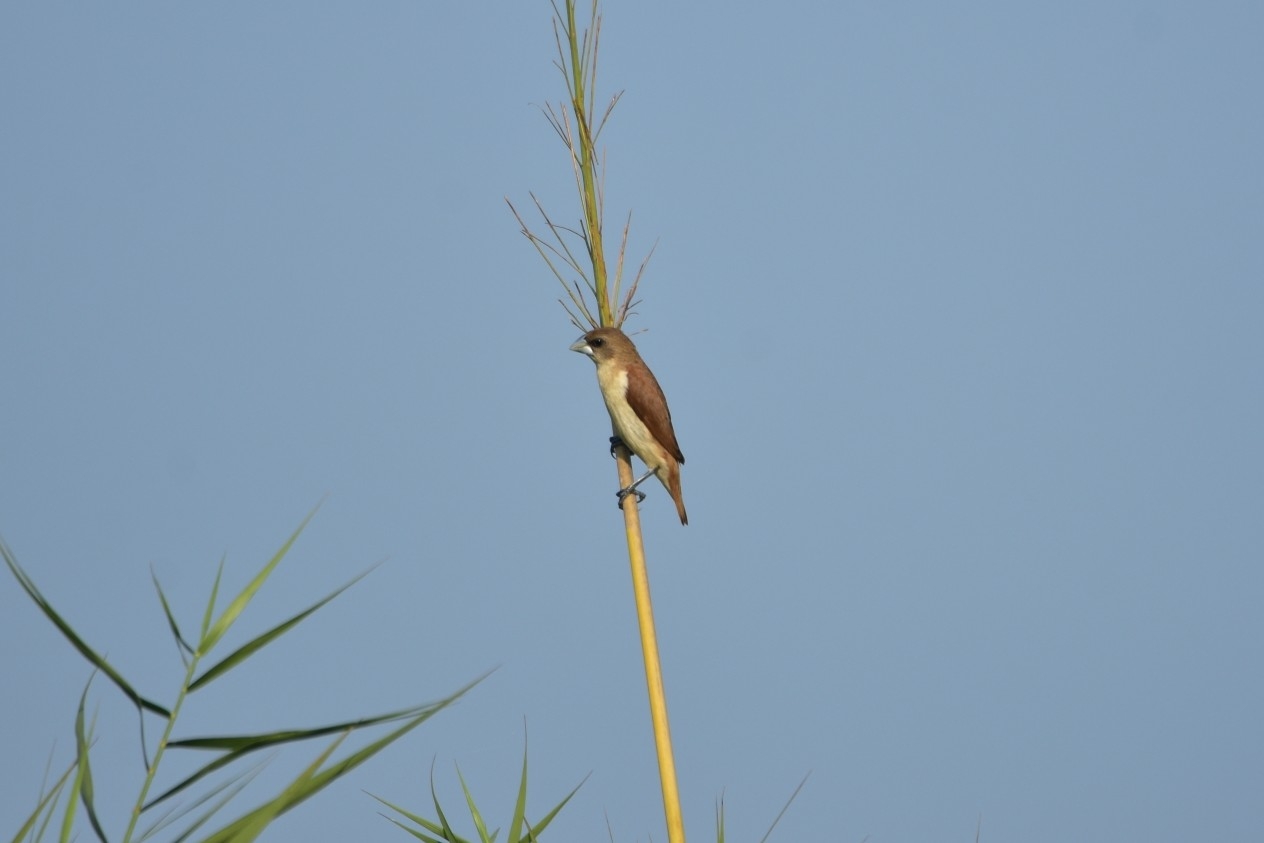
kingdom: Animalia
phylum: Chordata
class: Aves
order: Passeriformes
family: Estrildidae
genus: Lonchura
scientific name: Lonchura malacca
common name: Tricolored munia
